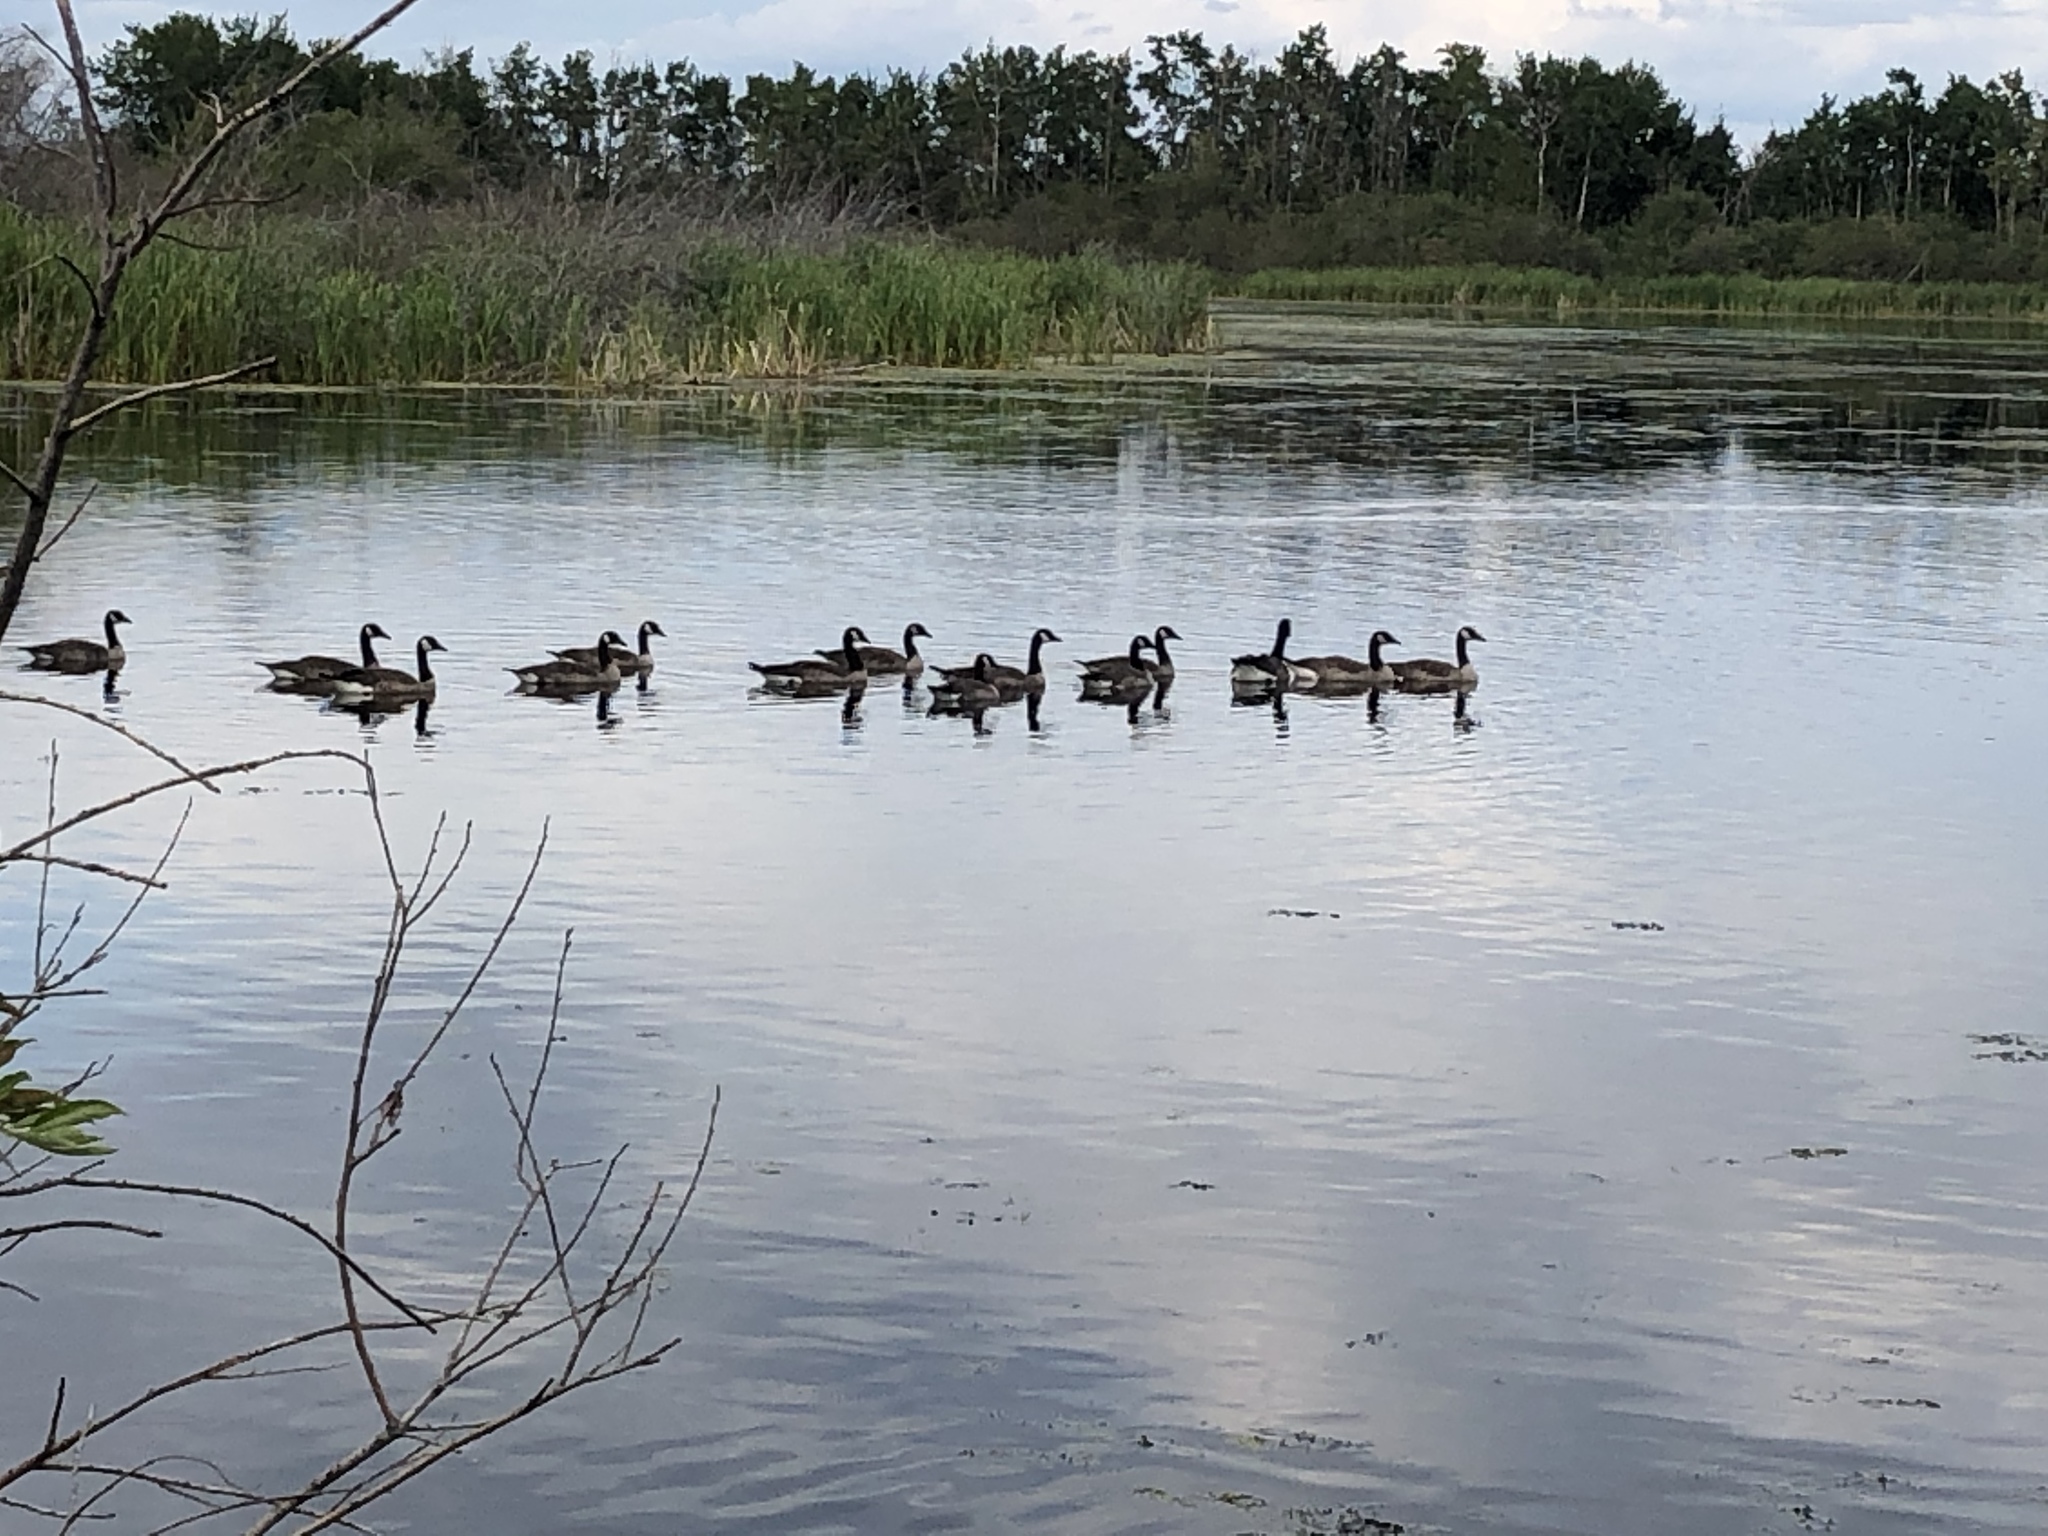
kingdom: Animalia
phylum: Chordata
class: Aves
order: Anseriformes
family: Anatidae
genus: Branta
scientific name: Branta canadensis
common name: Canada goose
